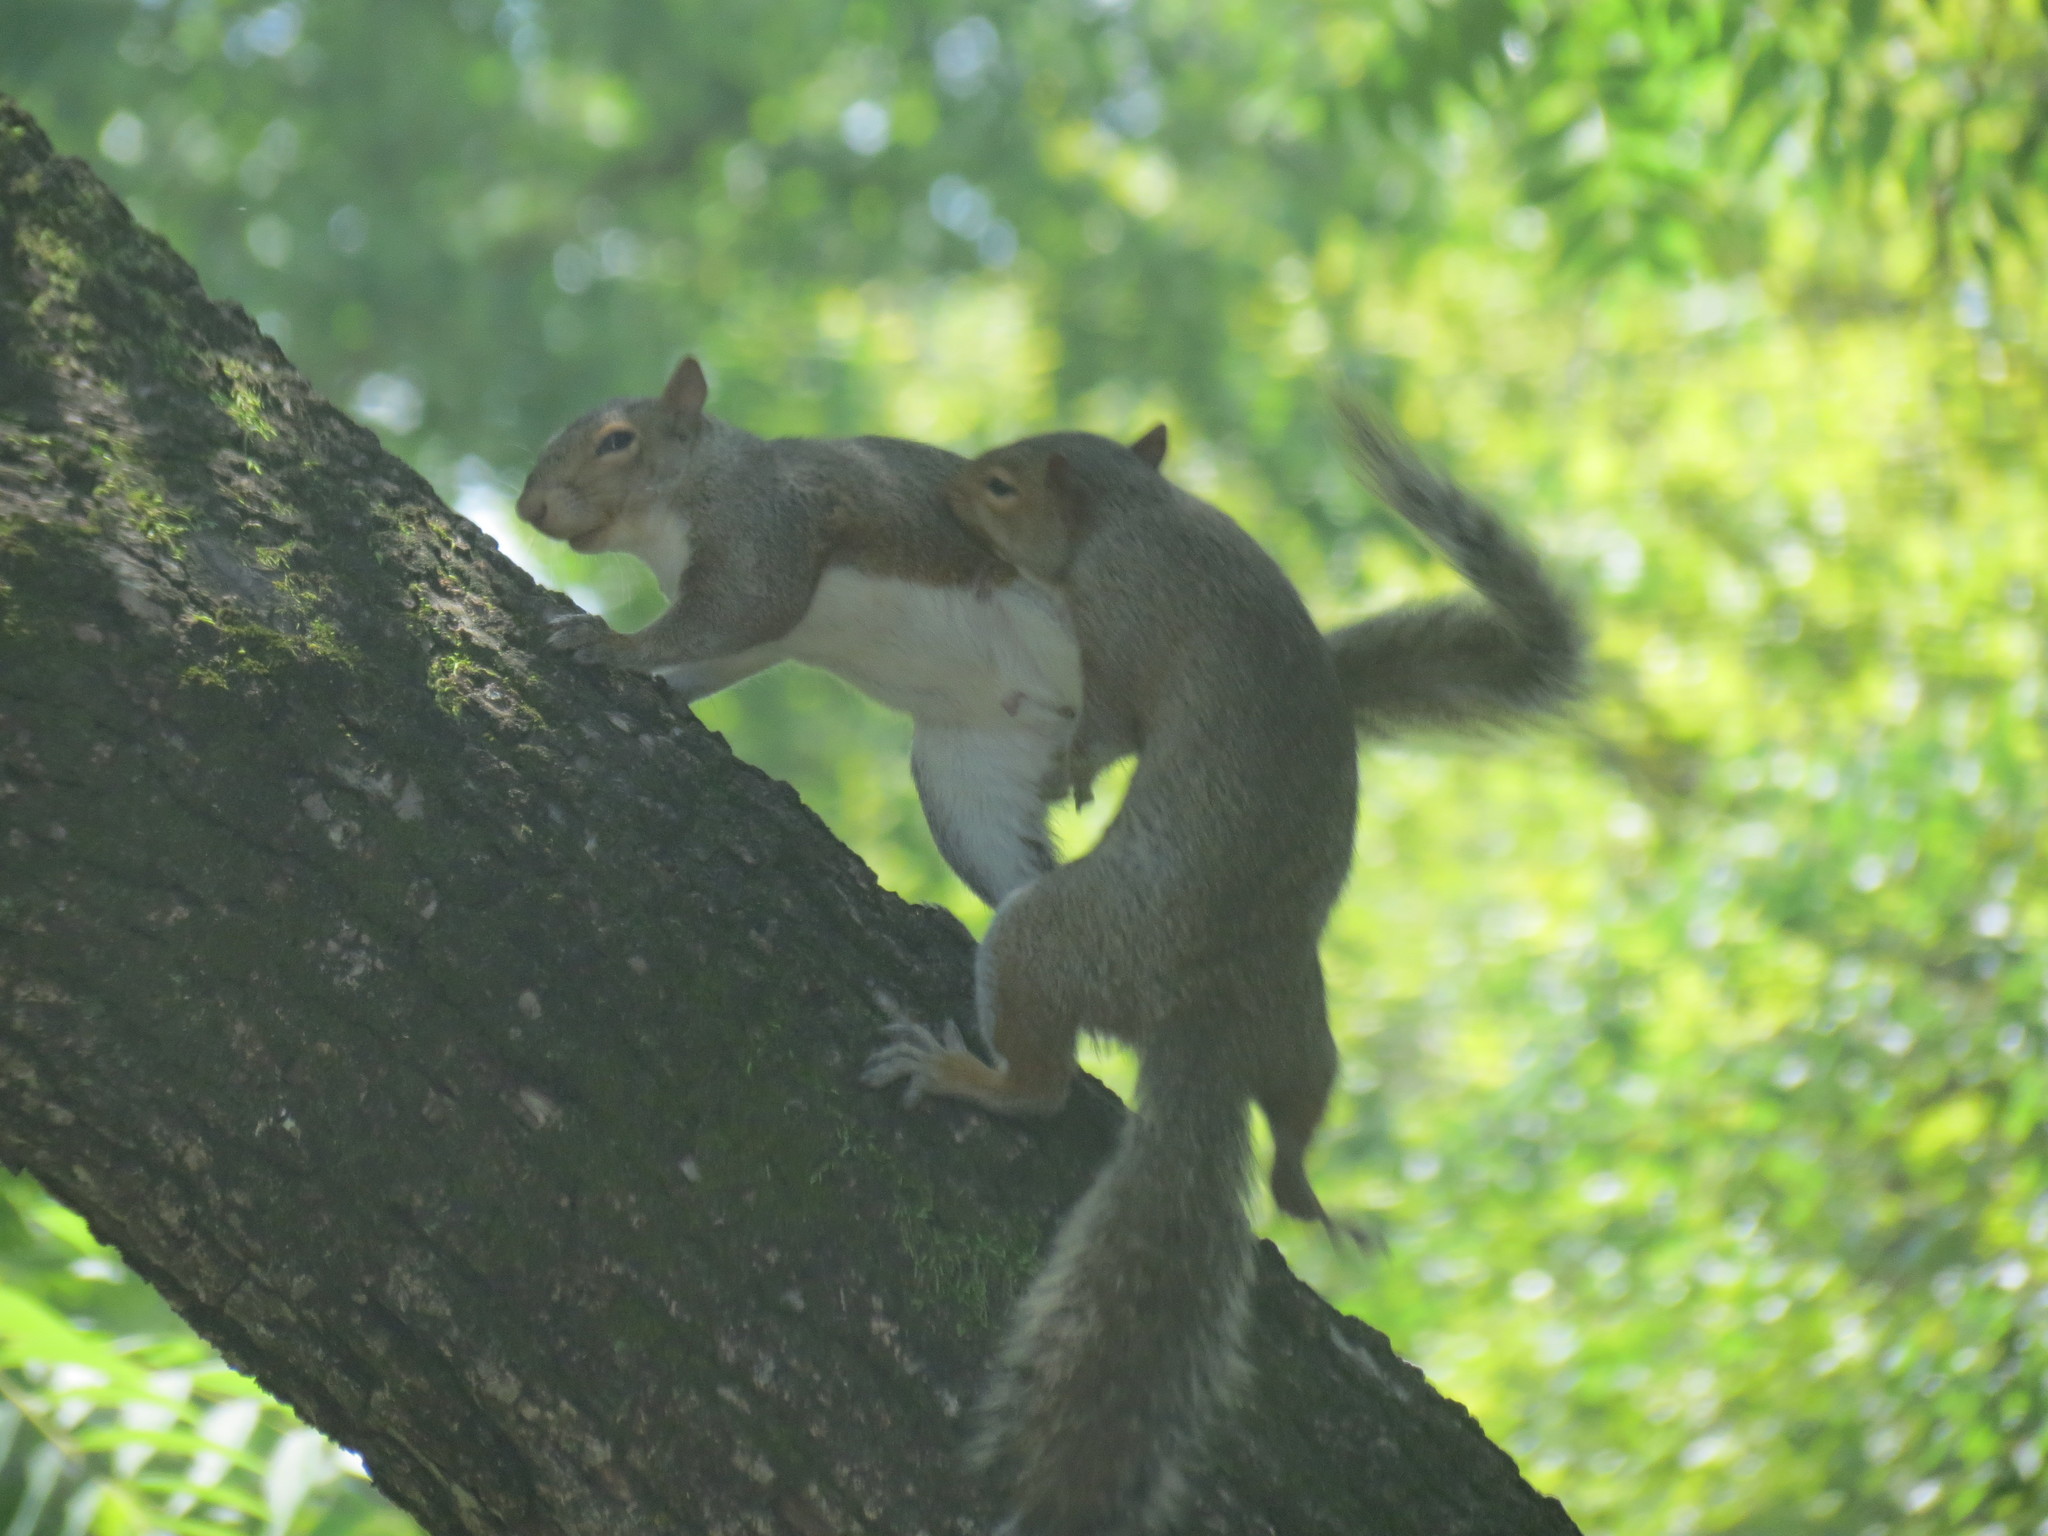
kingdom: Animalia
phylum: Chordata
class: Mammalia
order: Rodentia
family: Sciuridae
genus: Sciurus
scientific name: Sciurus carolinensis
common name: Eastern gray squirrel
